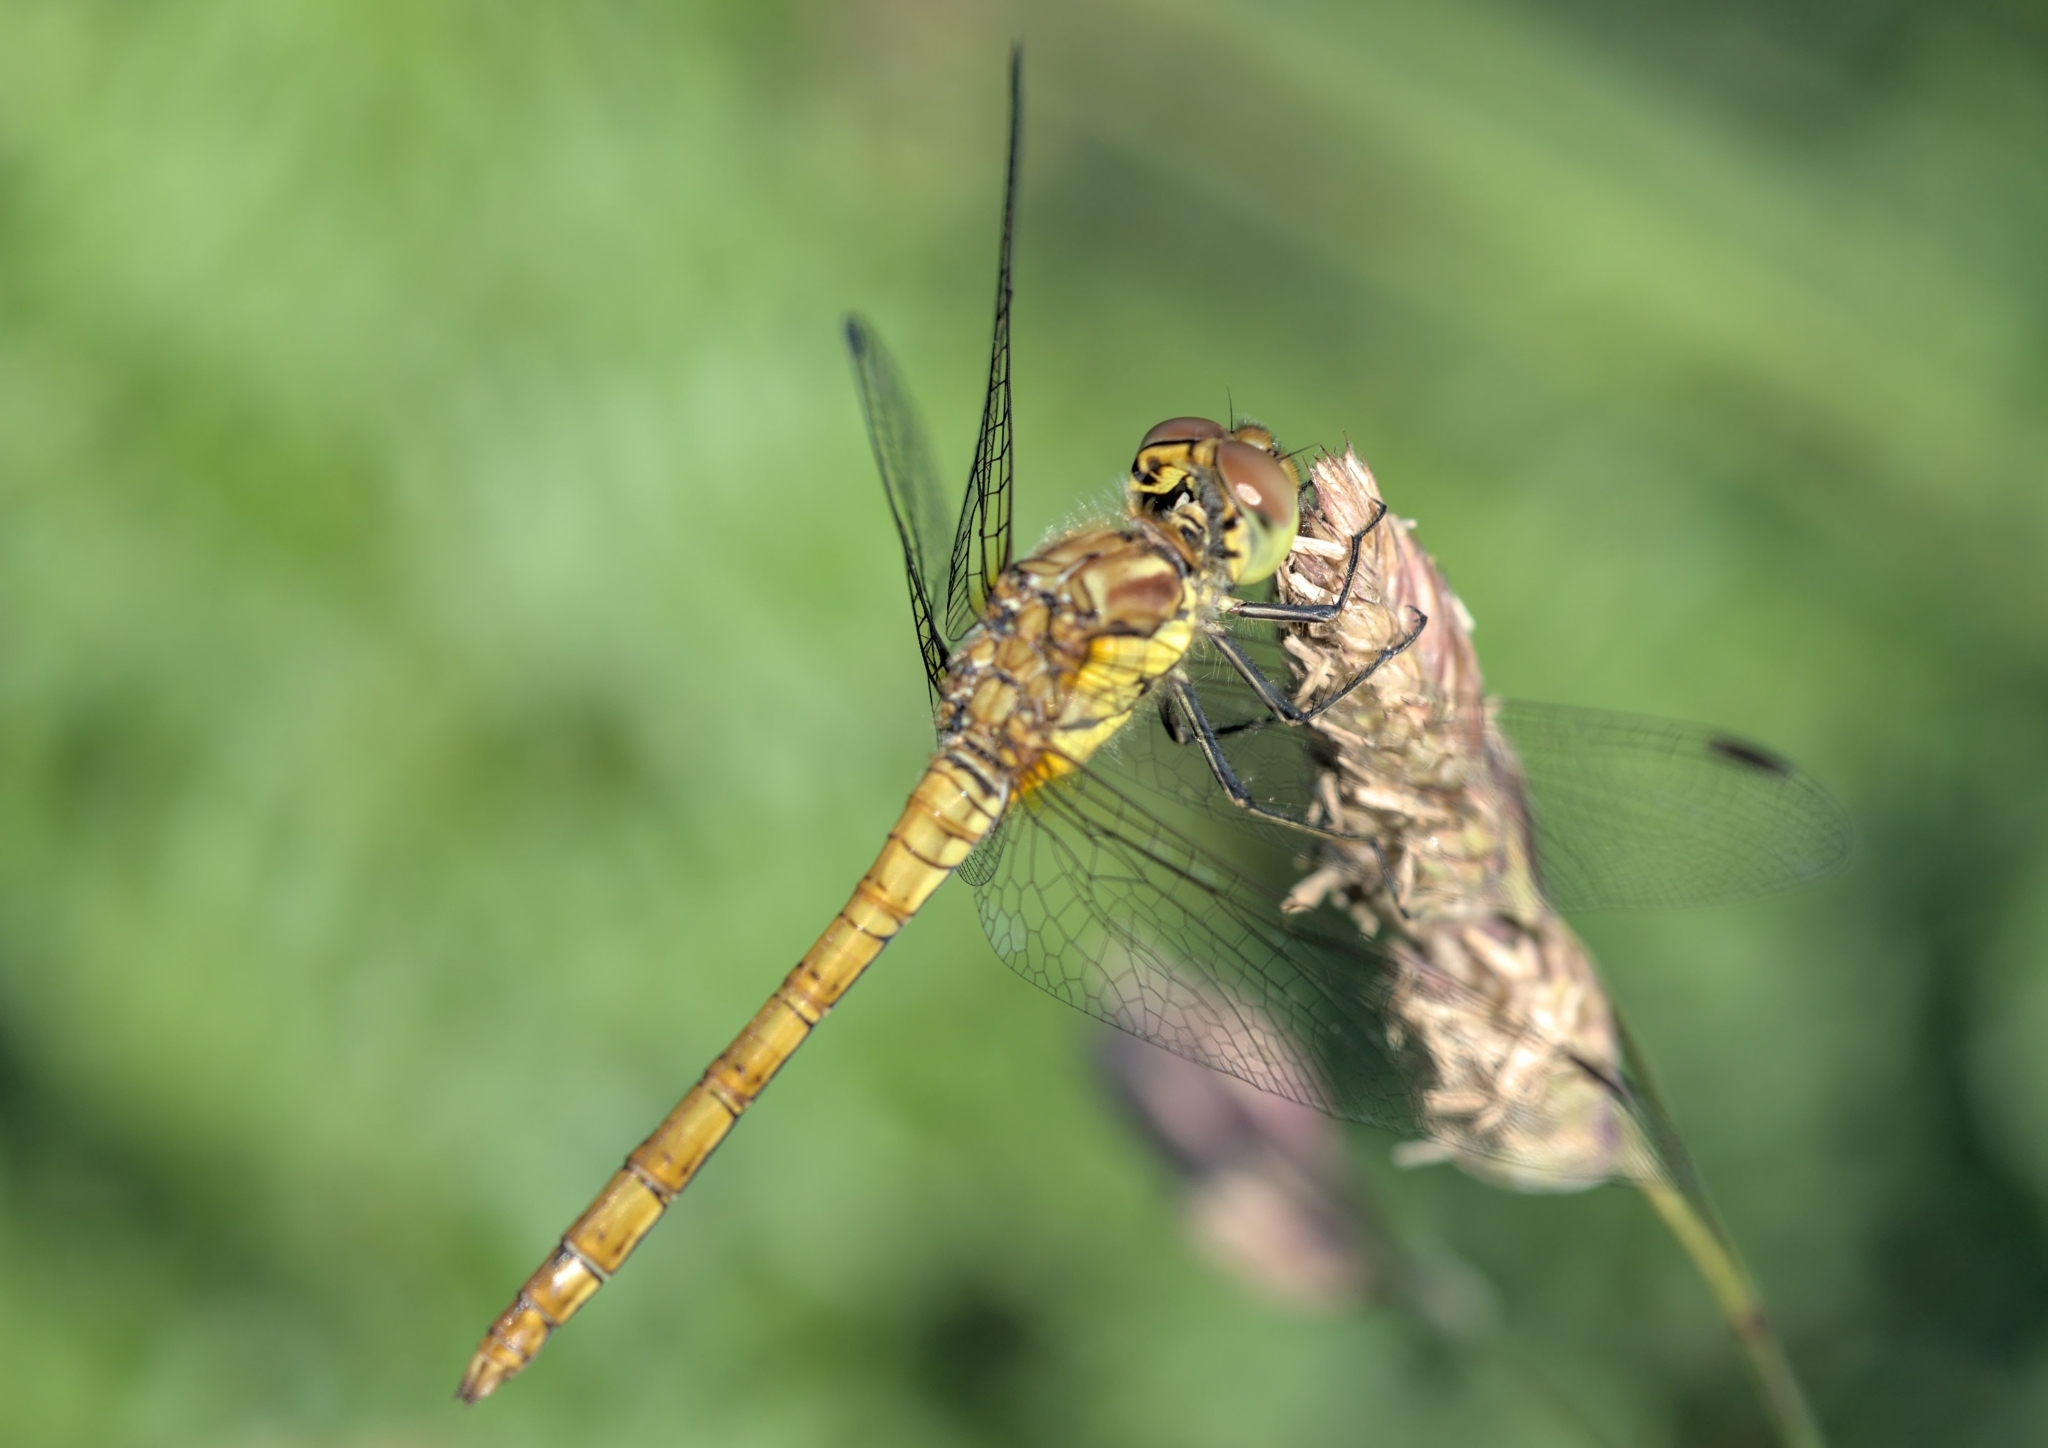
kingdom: Animalia
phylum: Arthropoda
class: Insecta
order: Odonata
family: Libellulidae
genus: Sympetrum
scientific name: Sympetrum striolatum
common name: Common darter
